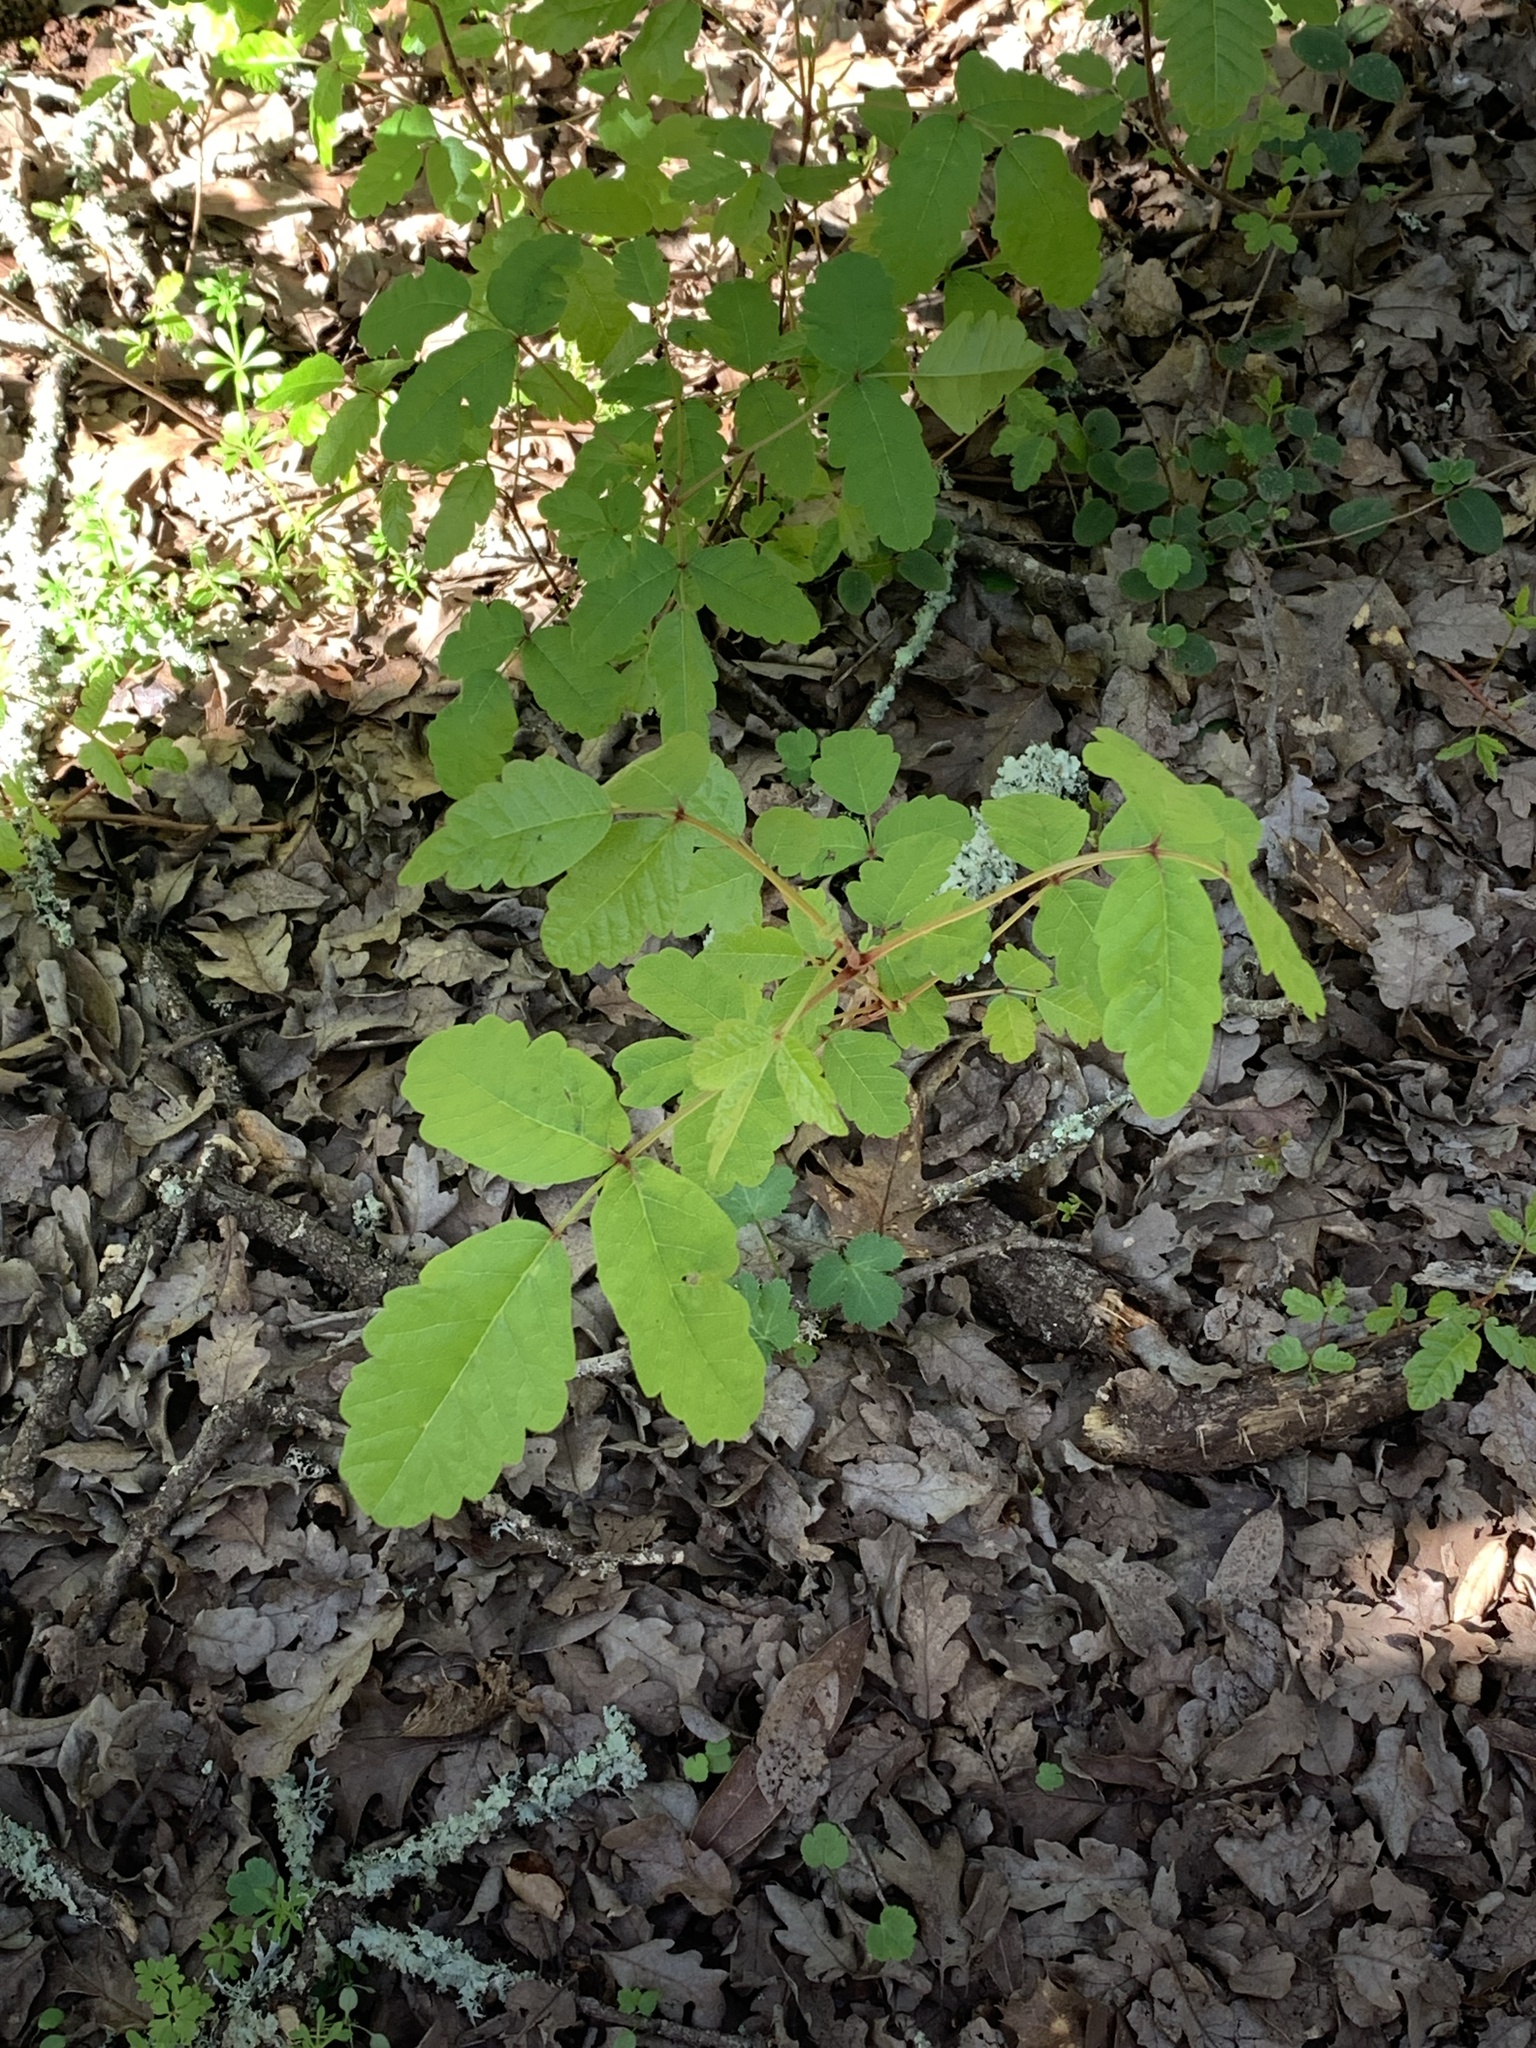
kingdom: Plantae
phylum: Tracheophyta
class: Magnoliopsida
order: Sapindales
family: Anacardiaceae
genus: Toxicodendron
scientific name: Toxicodendron diversilobum
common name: Pacific poison-oak
